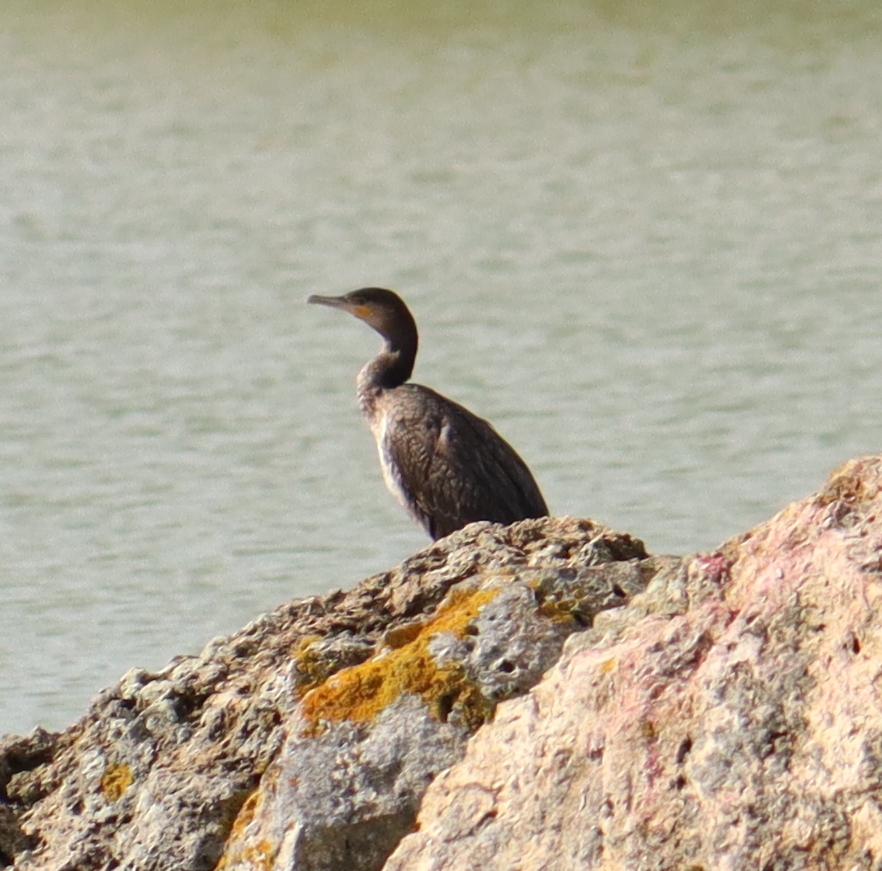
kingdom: Animalia
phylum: Chordata
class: Aves
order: Suliformes
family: Phalacrocoracidae
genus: Phalacrocorax
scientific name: Phalacrocorax carbo
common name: Great cormorant
